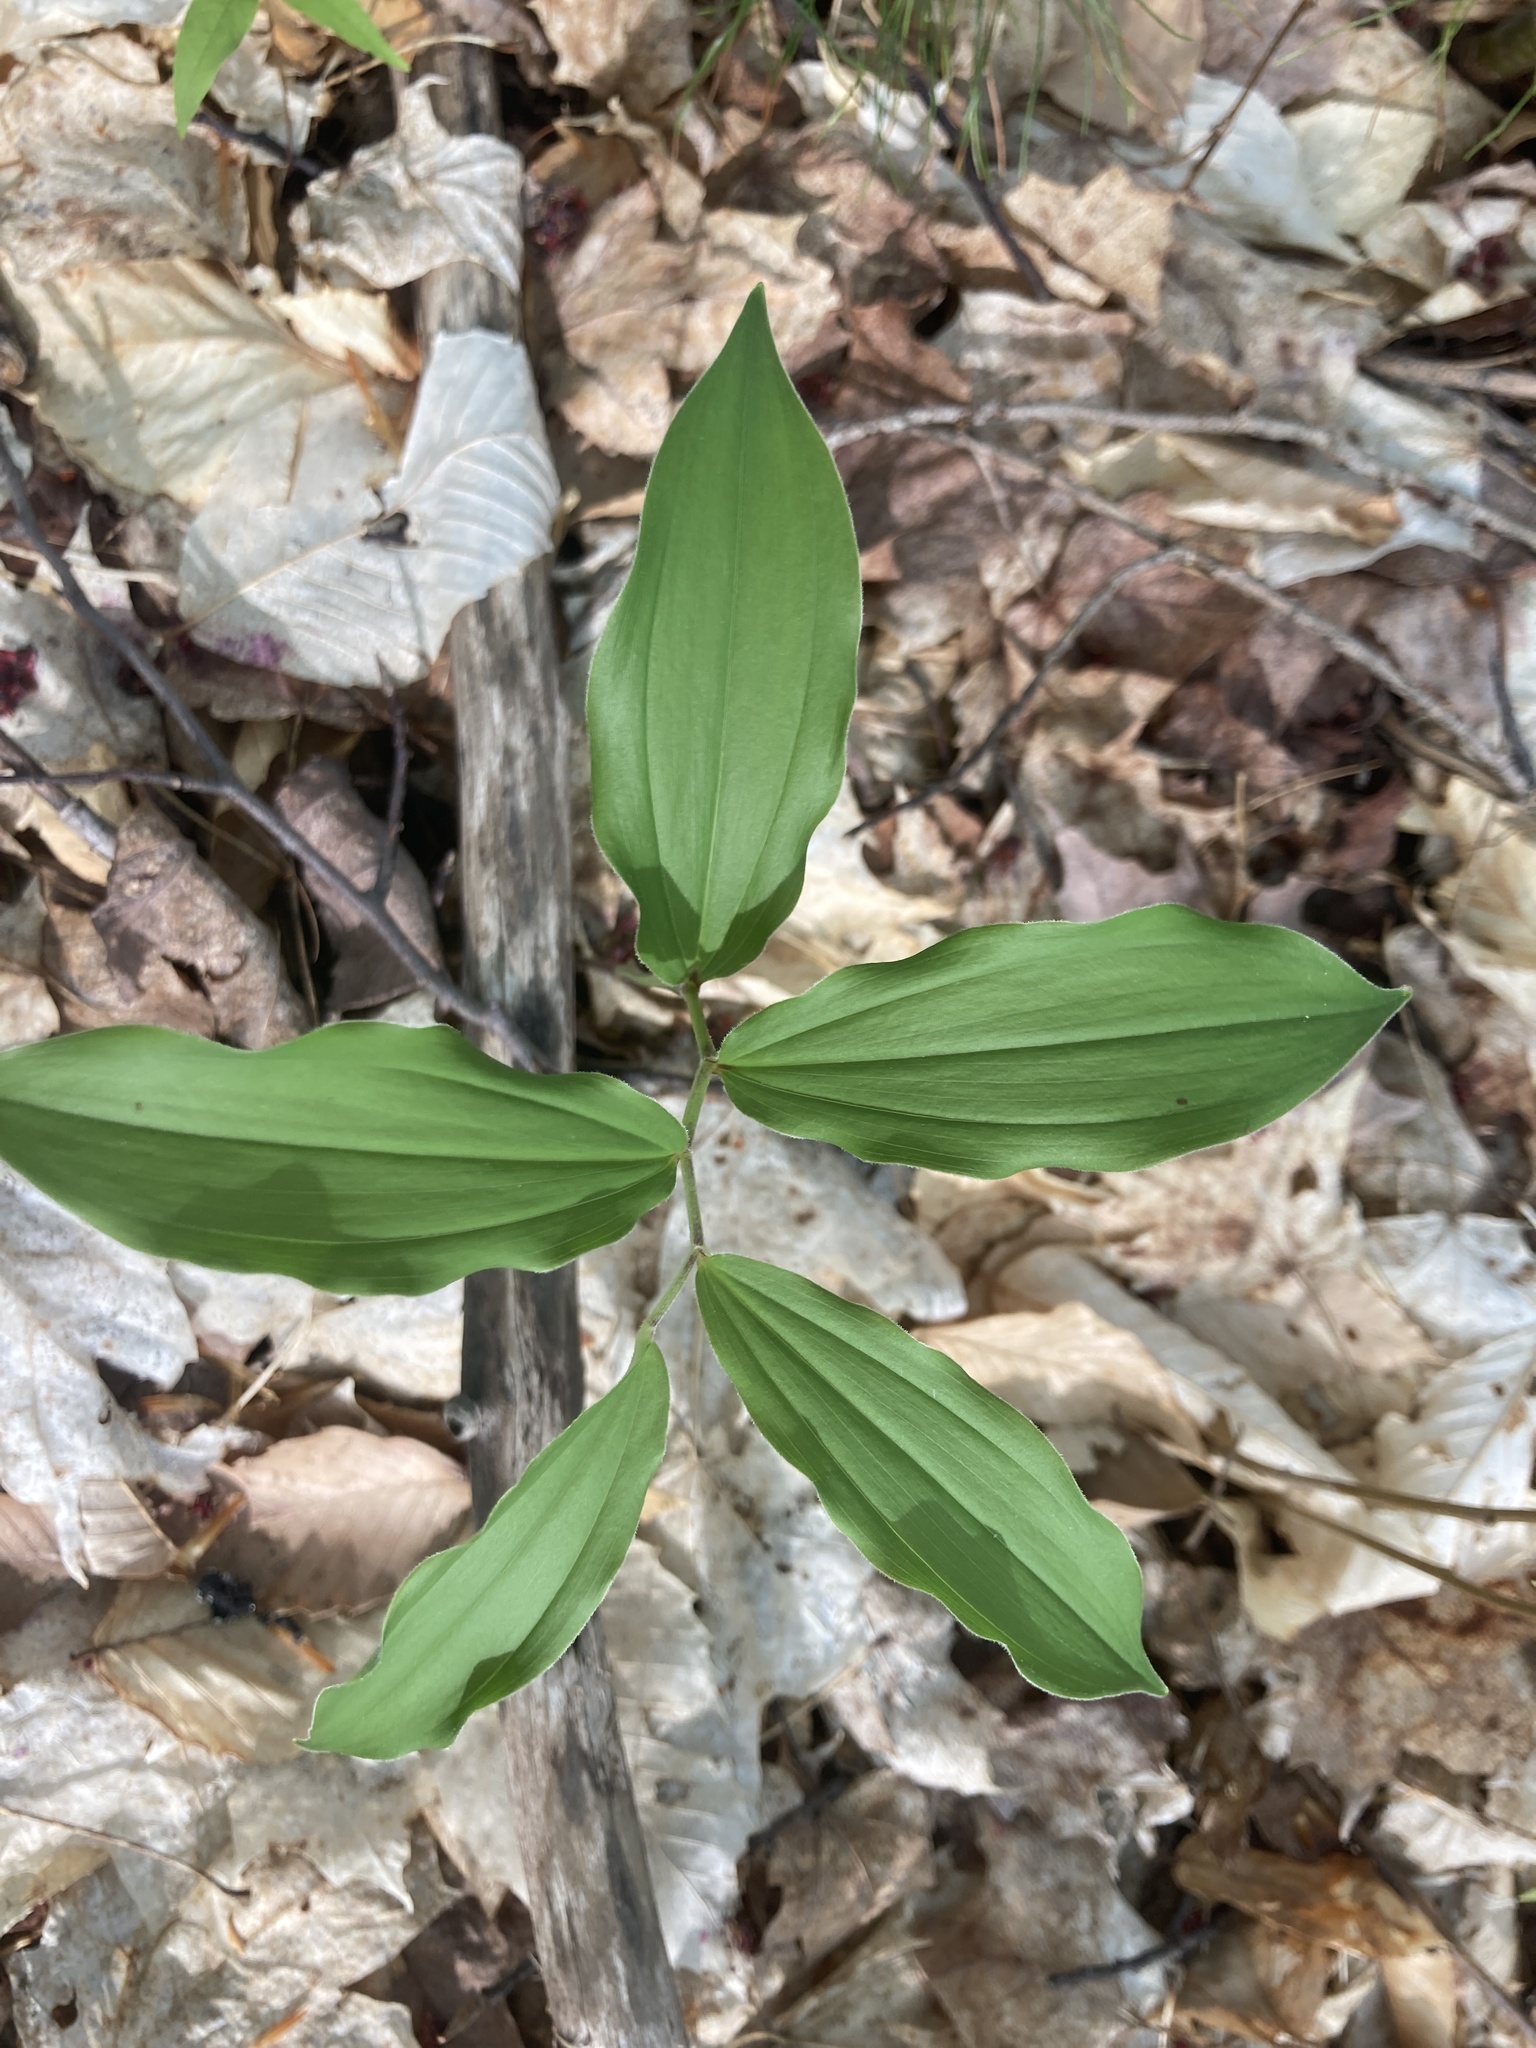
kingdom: Plantae
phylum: Tracheophyta
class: Liliopsida
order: Asparagales
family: Asparagaceae
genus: Maianthemum
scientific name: Maianthemum racemosum
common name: False spikenard
